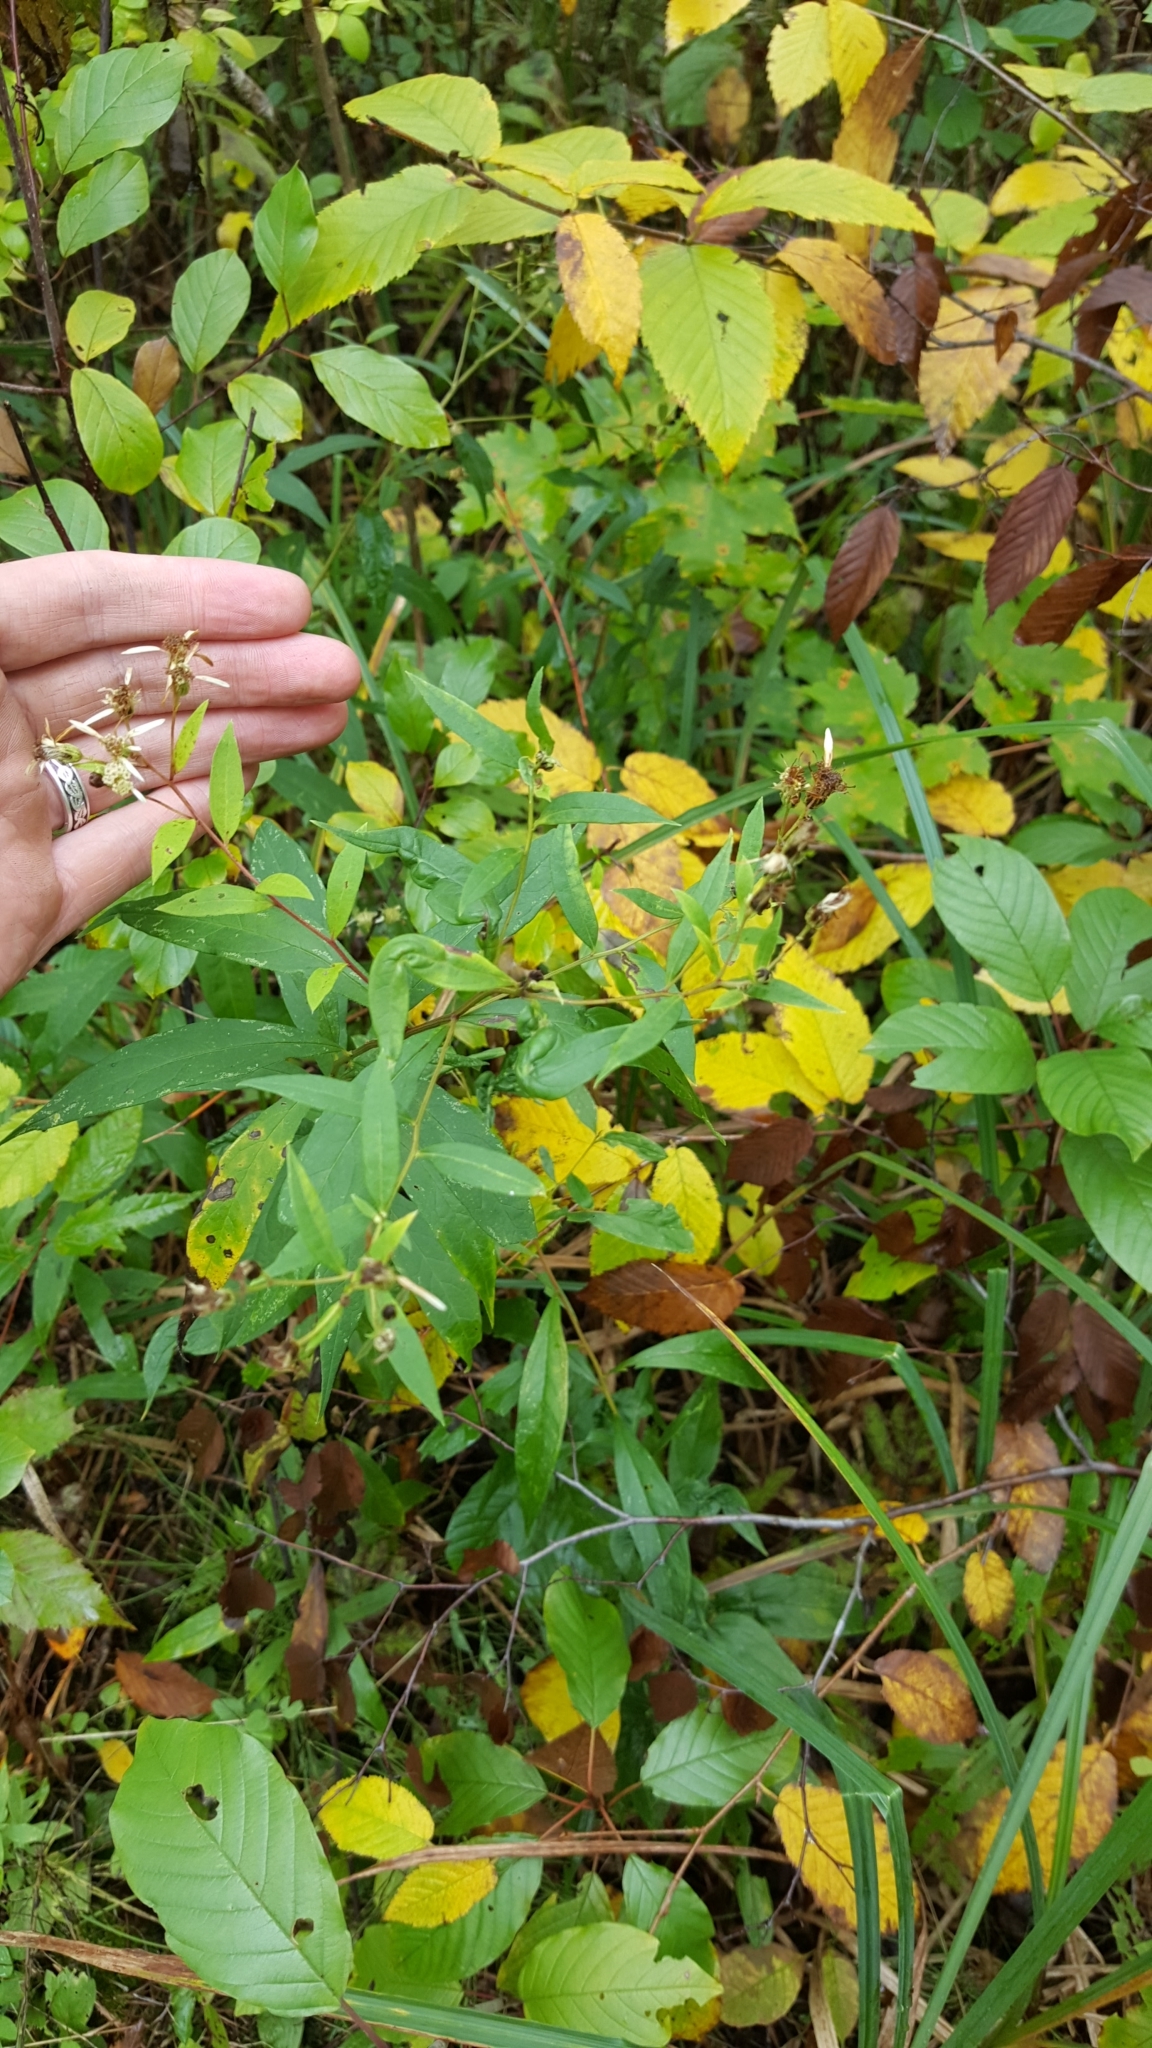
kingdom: Plantae
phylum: Tracheophyta
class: Magnoliopsida
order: Asterales
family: Asteraceae
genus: Doellingeria
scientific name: Doellingeria umbellata
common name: Flat-top white aster
